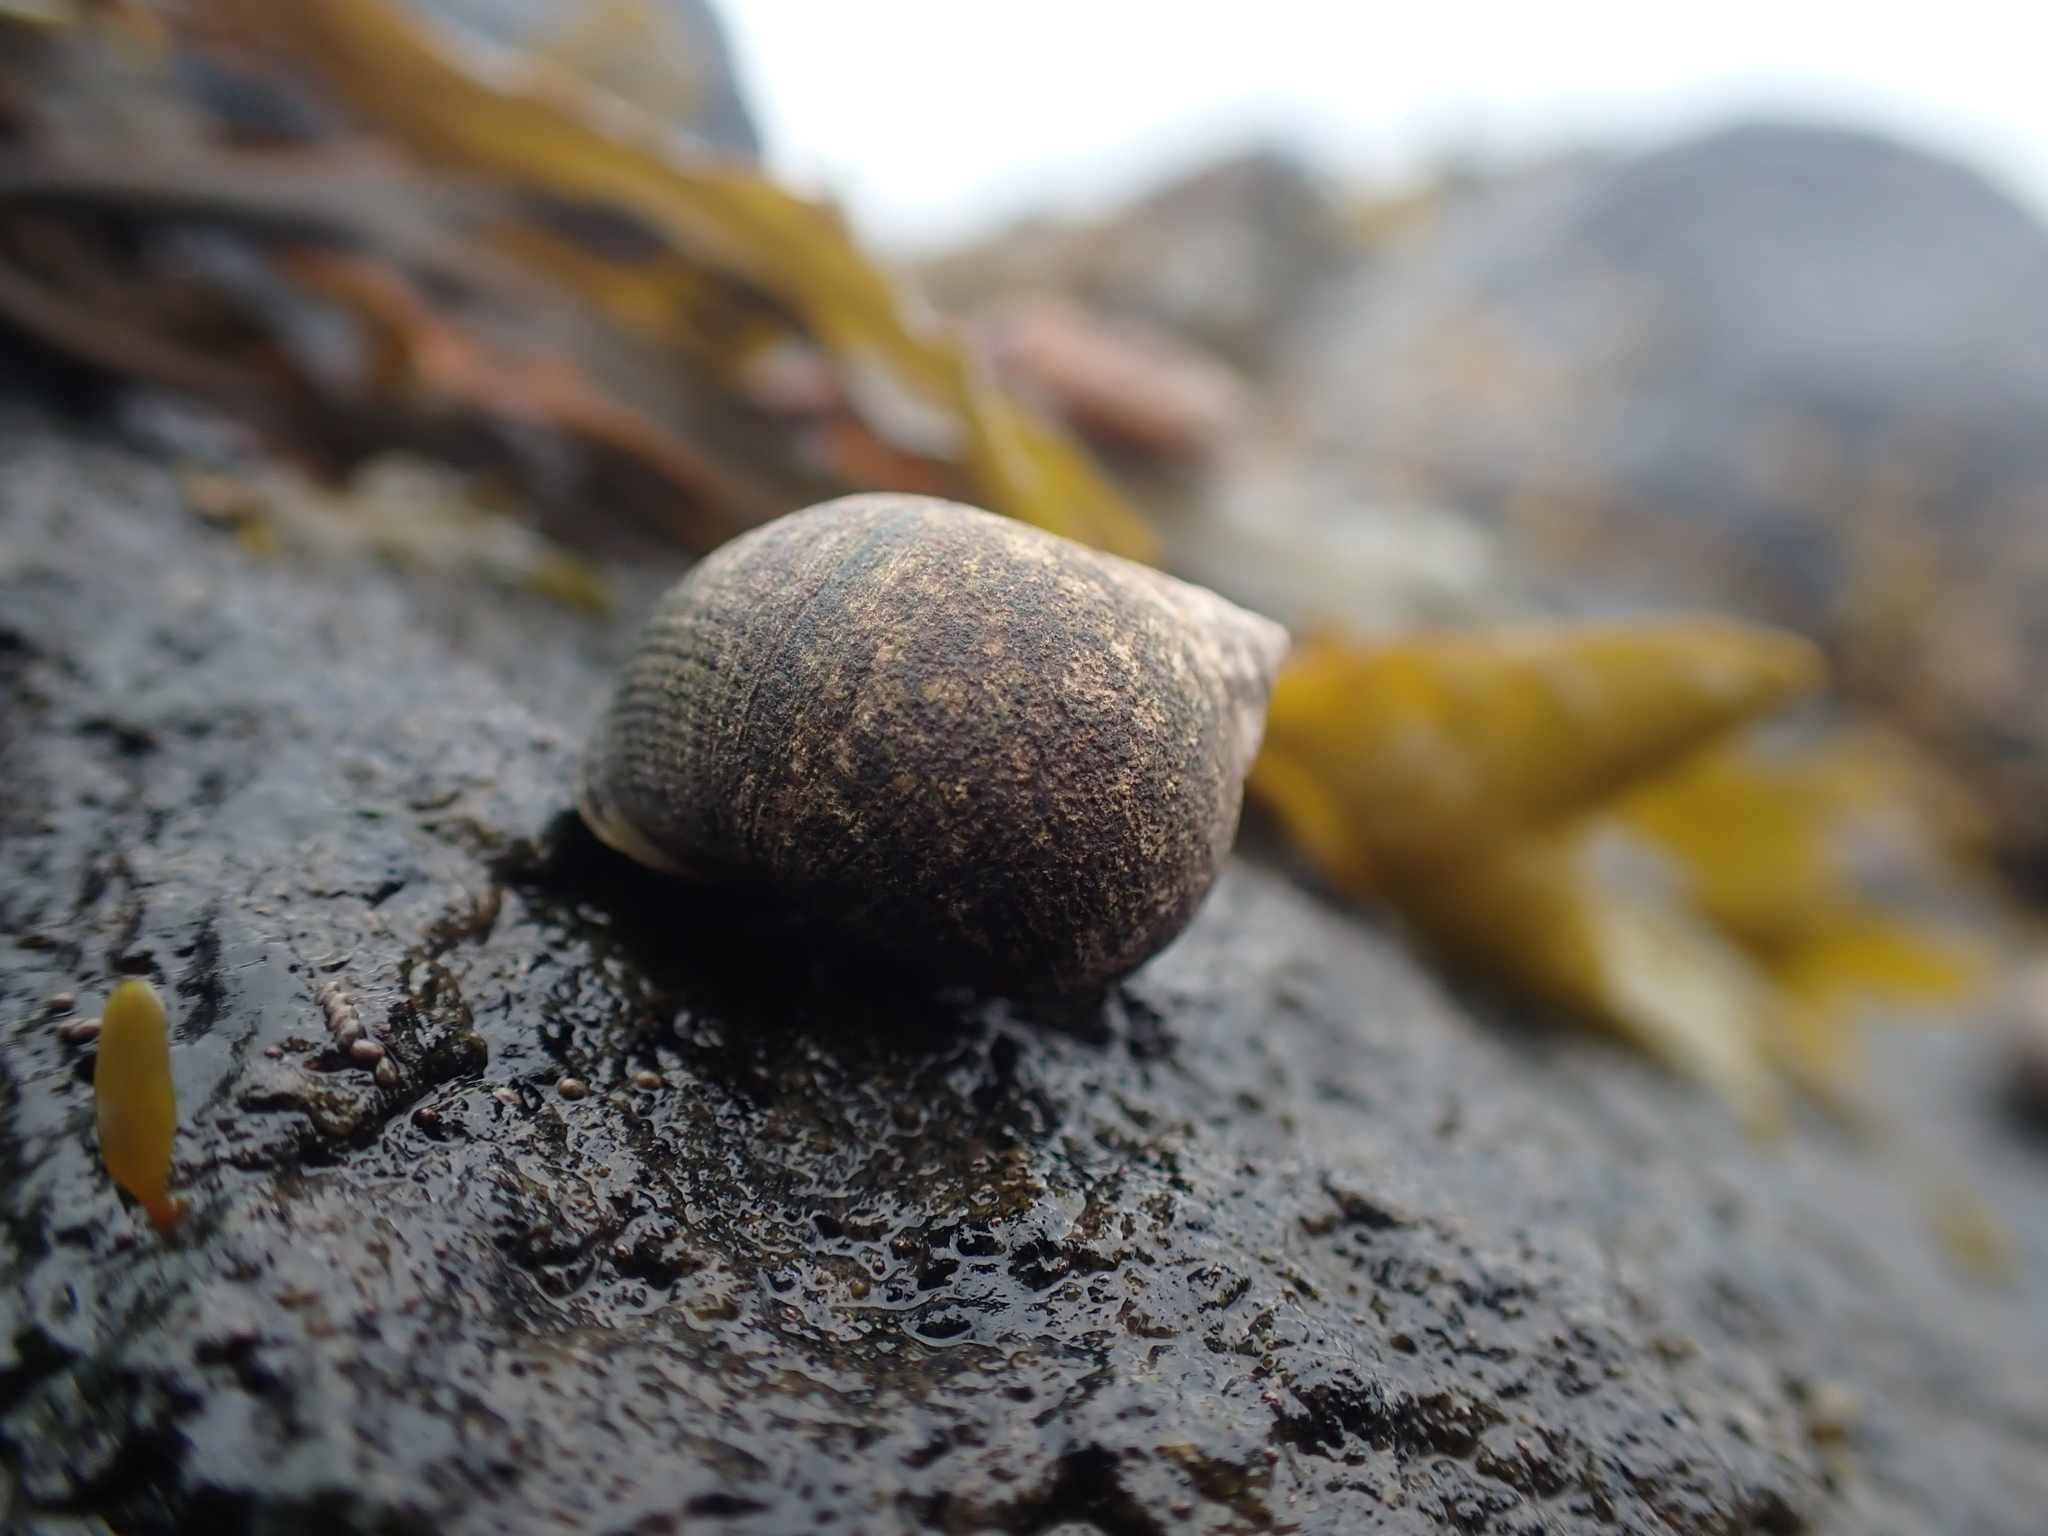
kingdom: Animalia
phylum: Mollusca
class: Gastropoda
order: Littorinimorpha
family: Littorinidae
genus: Littorina
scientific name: Littorina littorea
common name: Common periwinkle
